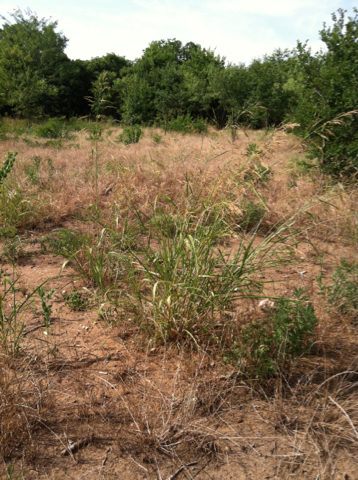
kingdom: Plantae
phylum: Tracheophyta
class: Liliopsida
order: Poales
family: Poaceae
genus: Sorghum
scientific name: Sorghum halepense
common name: Johnson-grass
